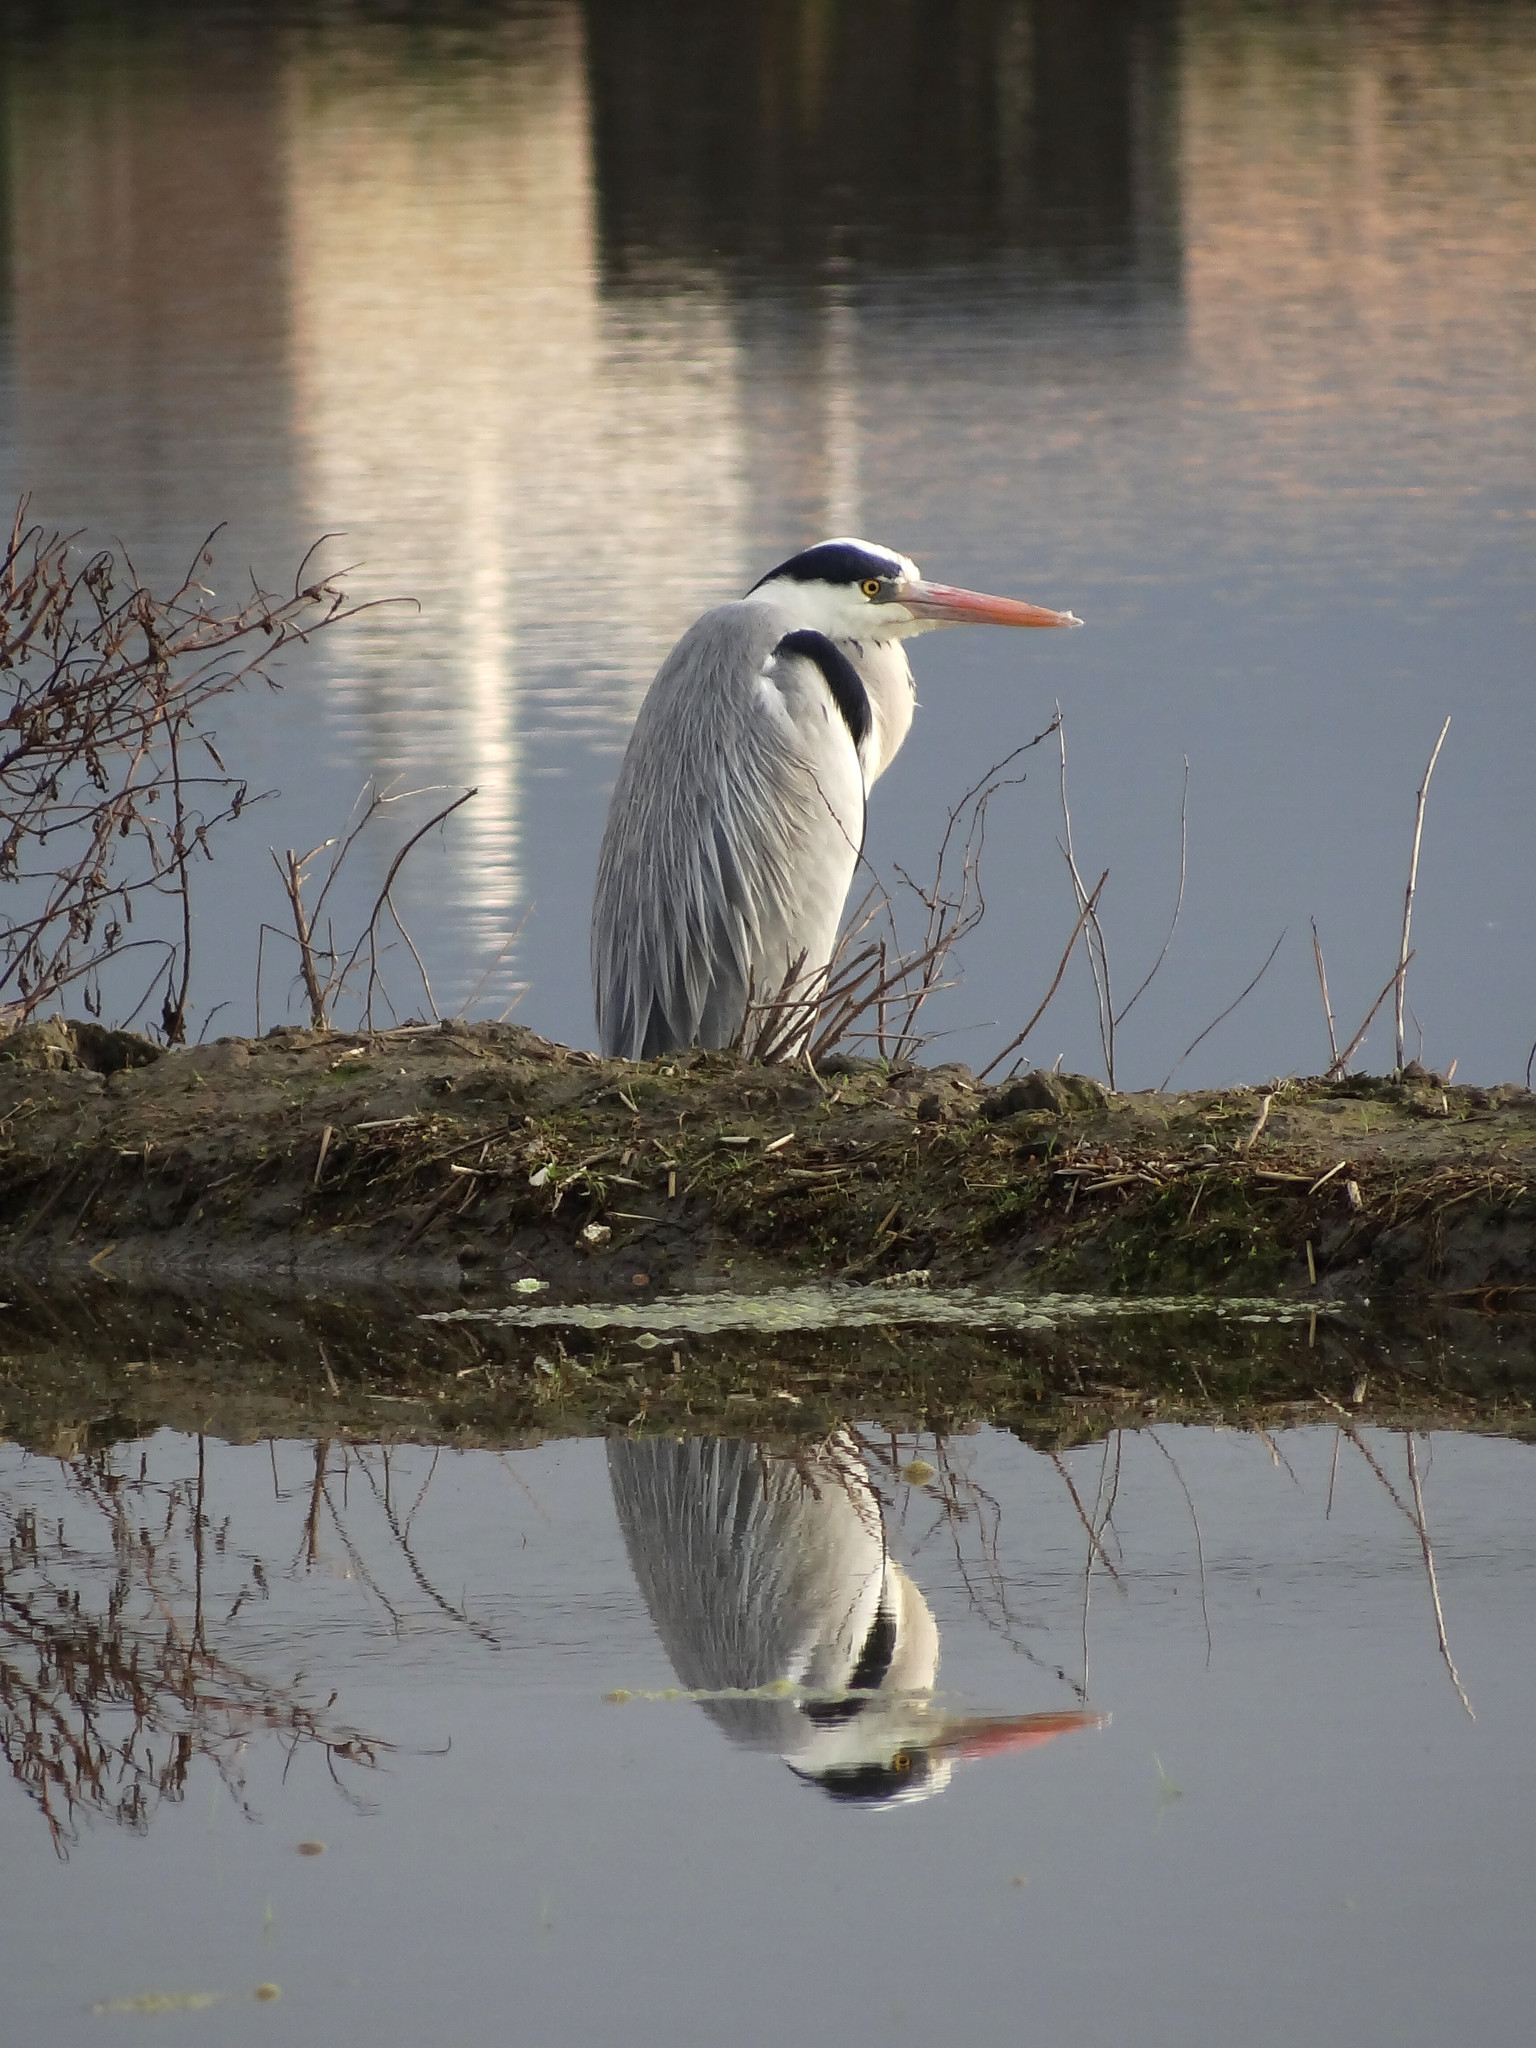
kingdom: Animalia
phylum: Chordata
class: Aves
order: Pelecaniformes
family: Ardeidae
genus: Ardea
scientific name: Ardea cinerea
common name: Grey heron
